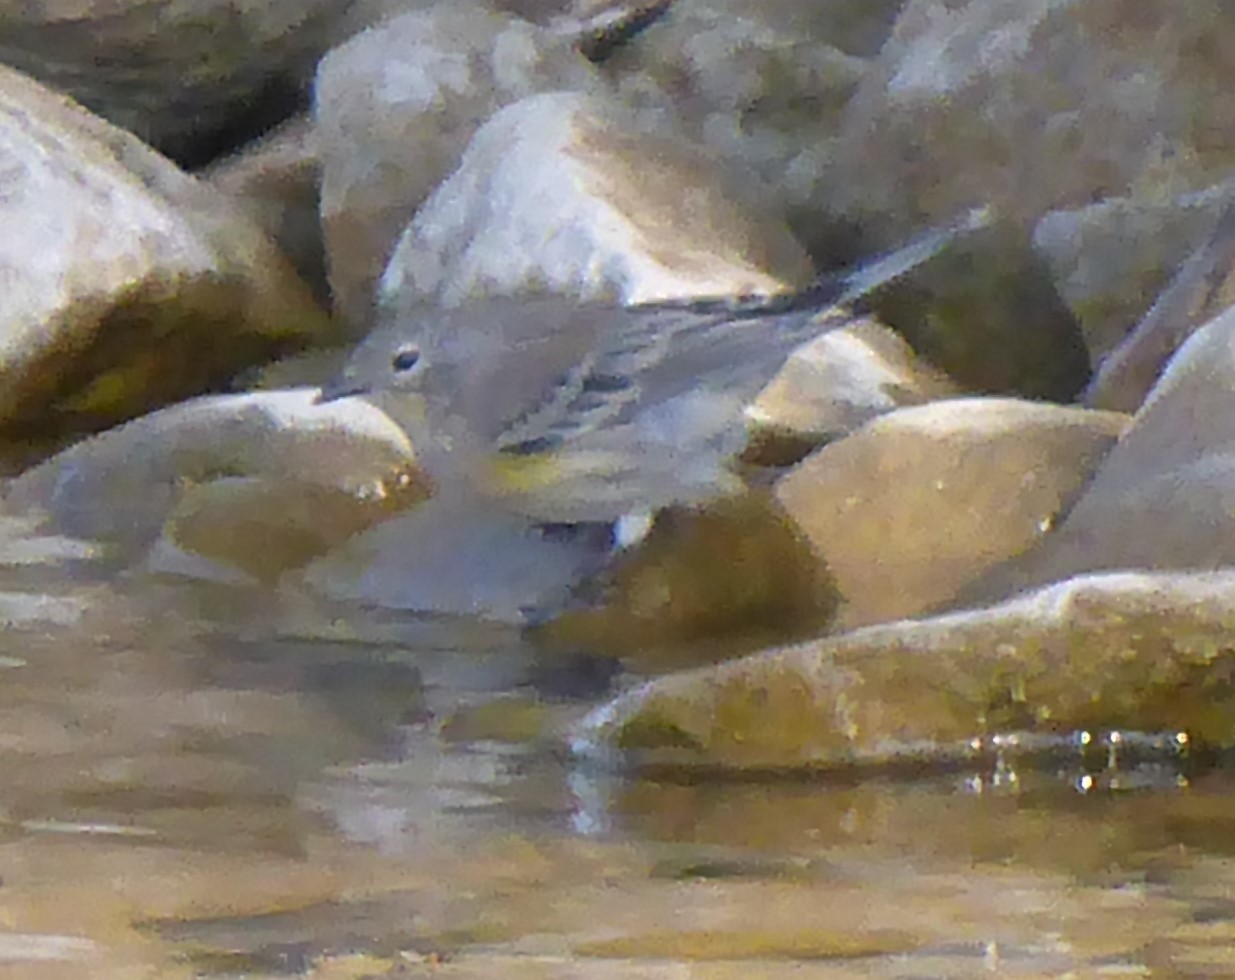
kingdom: Animalia
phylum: Chordata
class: Aves
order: Passeriformes
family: Parulidae
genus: Setophaga
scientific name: Setophaga coronata
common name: Myrtle warbler
